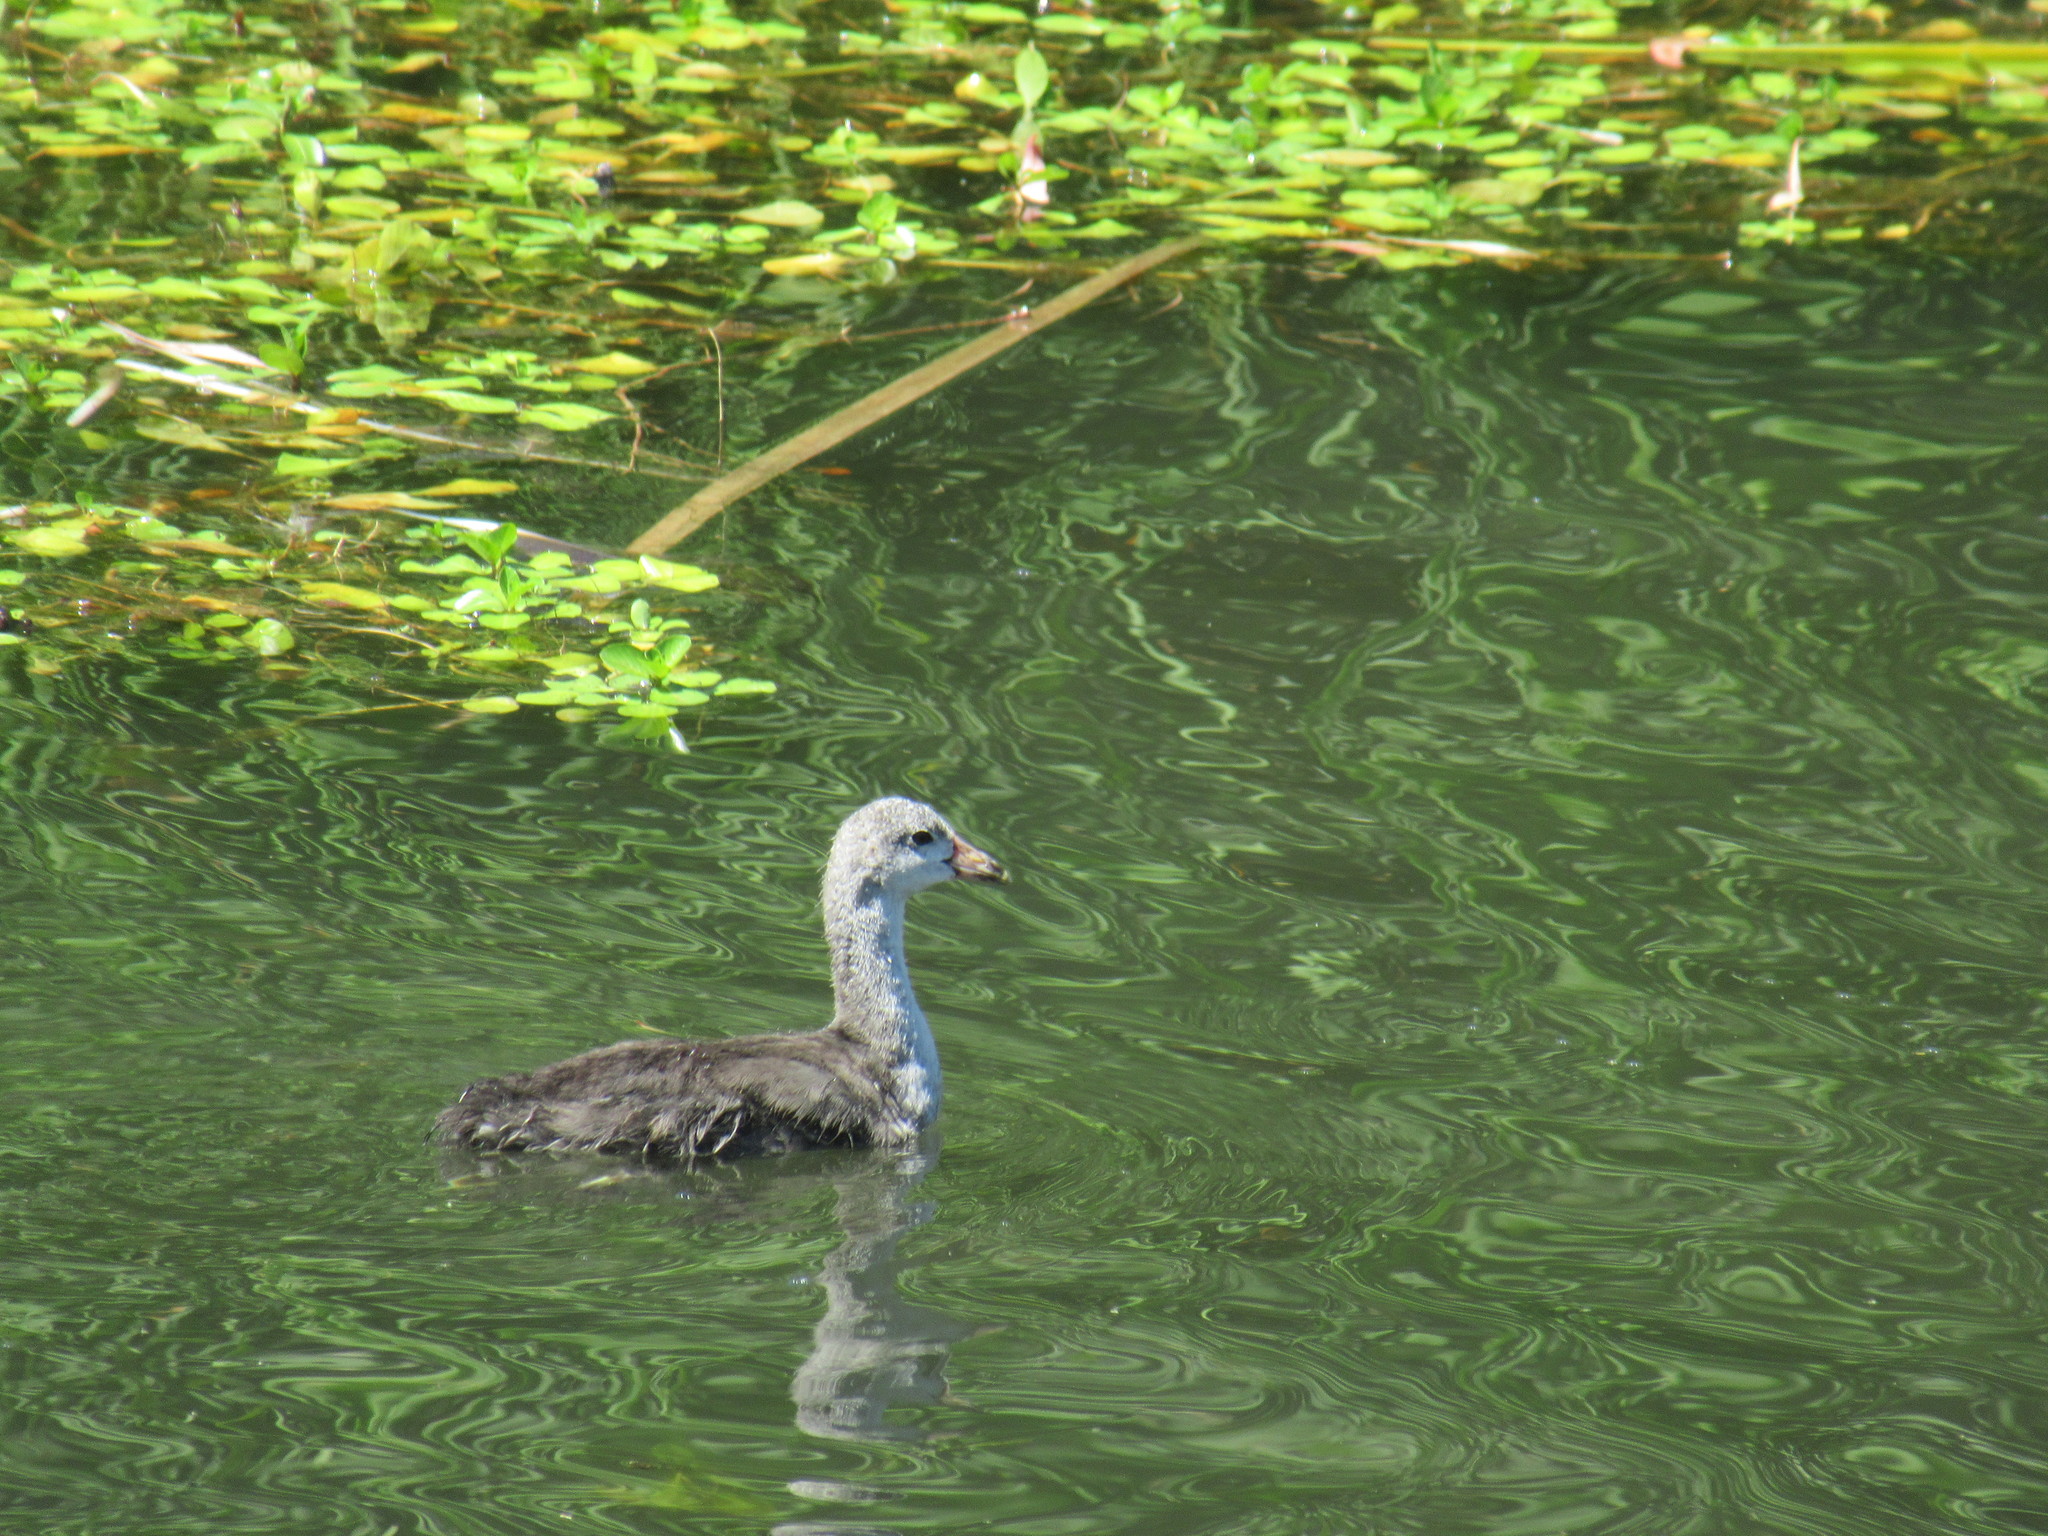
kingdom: Animalia
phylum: Chordata
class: Aves
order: Gruiformes
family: Rallidae
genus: Fulica
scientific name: Fulica americana
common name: American coot
